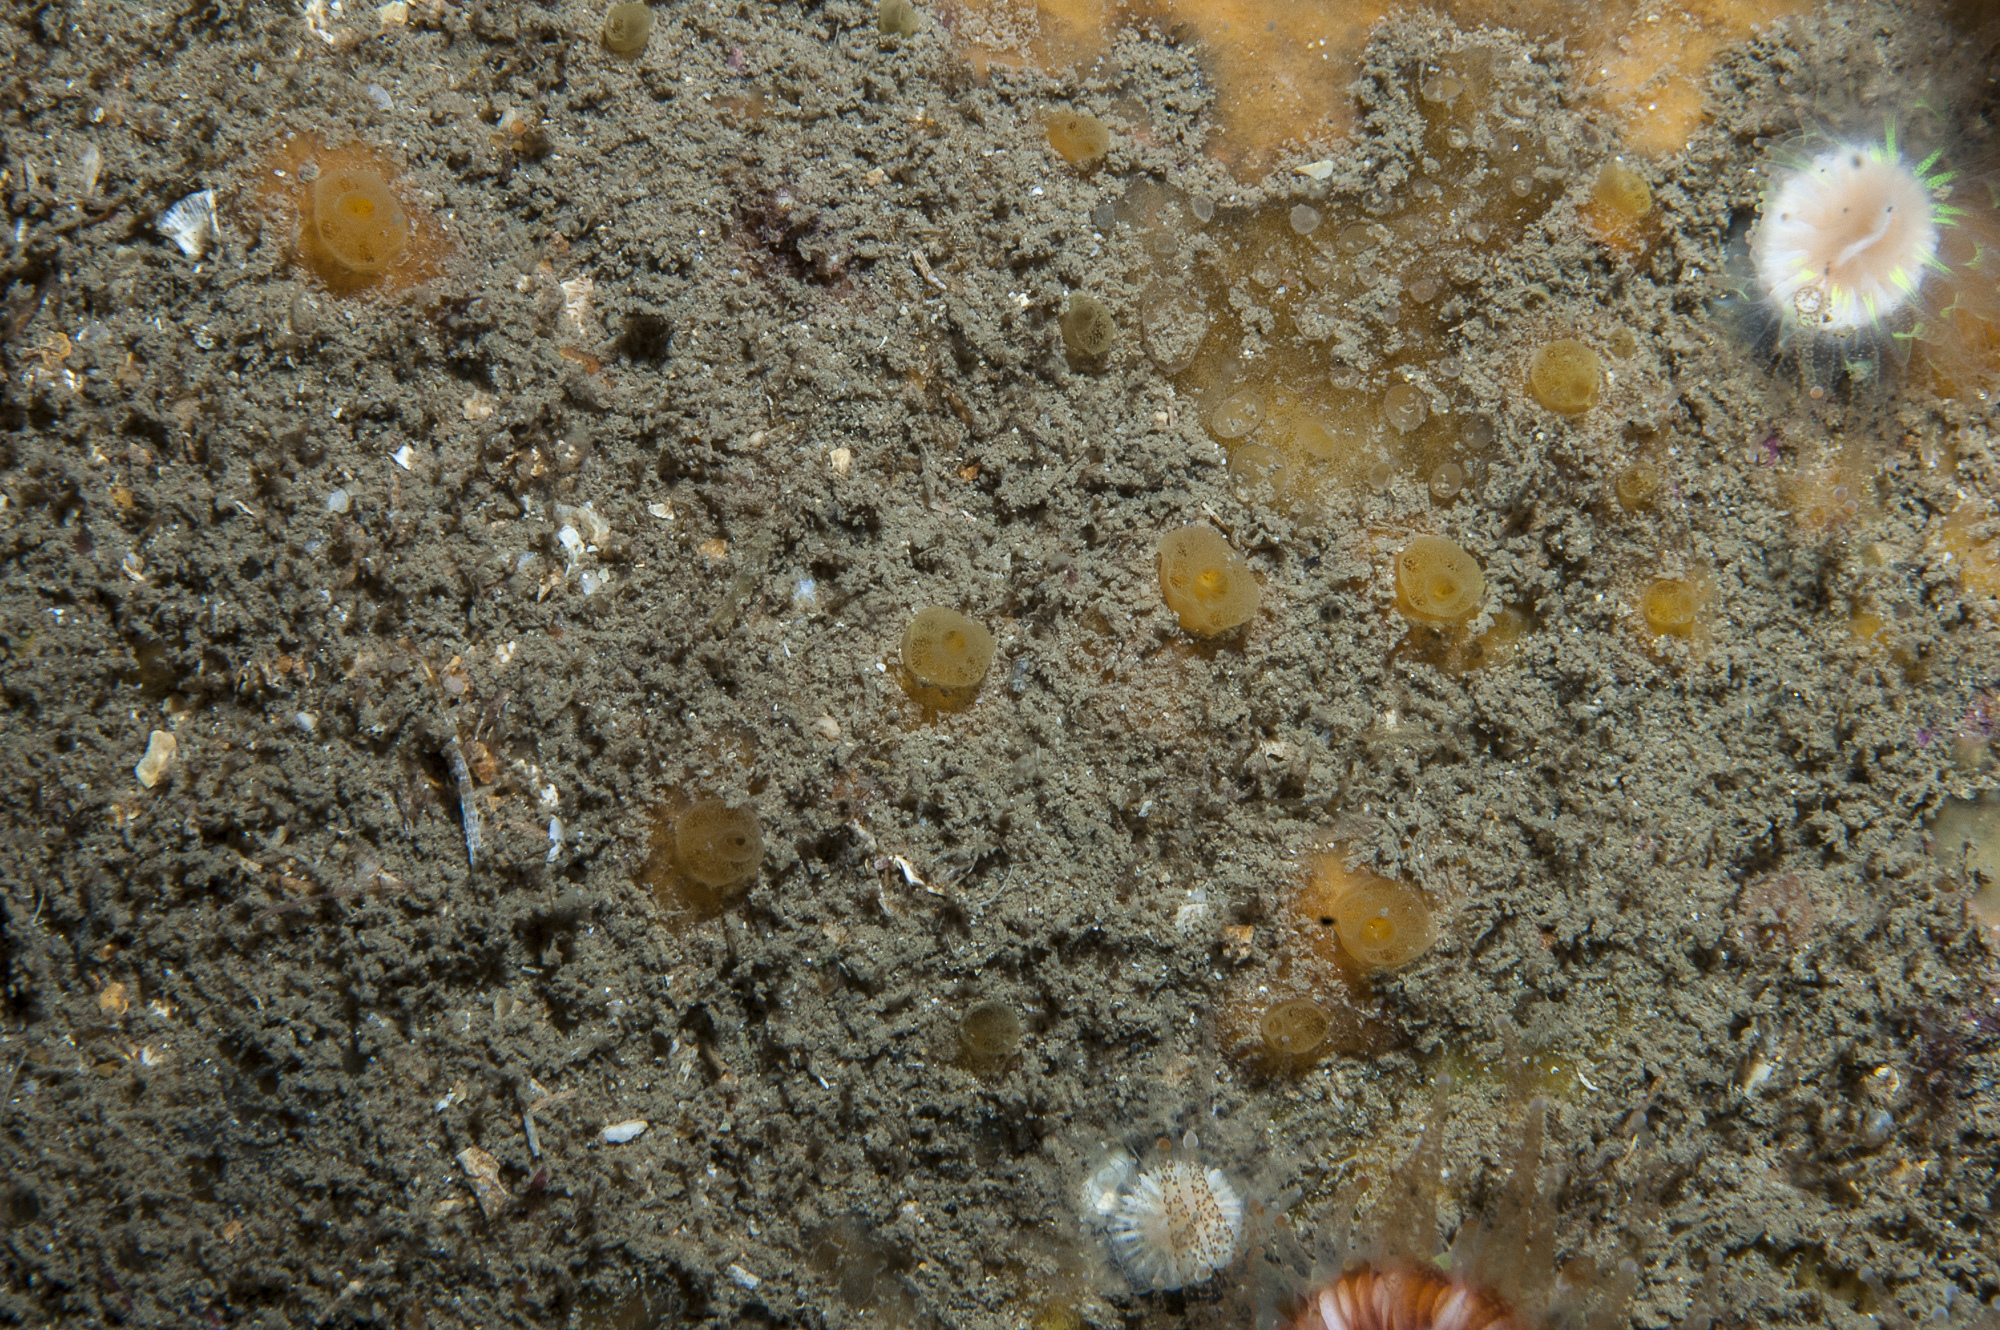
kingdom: Animalia
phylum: Porifera
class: Demospongiae
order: Poecilosclerida
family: Hymedesmiidae
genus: Hymedesmia
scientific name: Hymedesmia rathlinia
